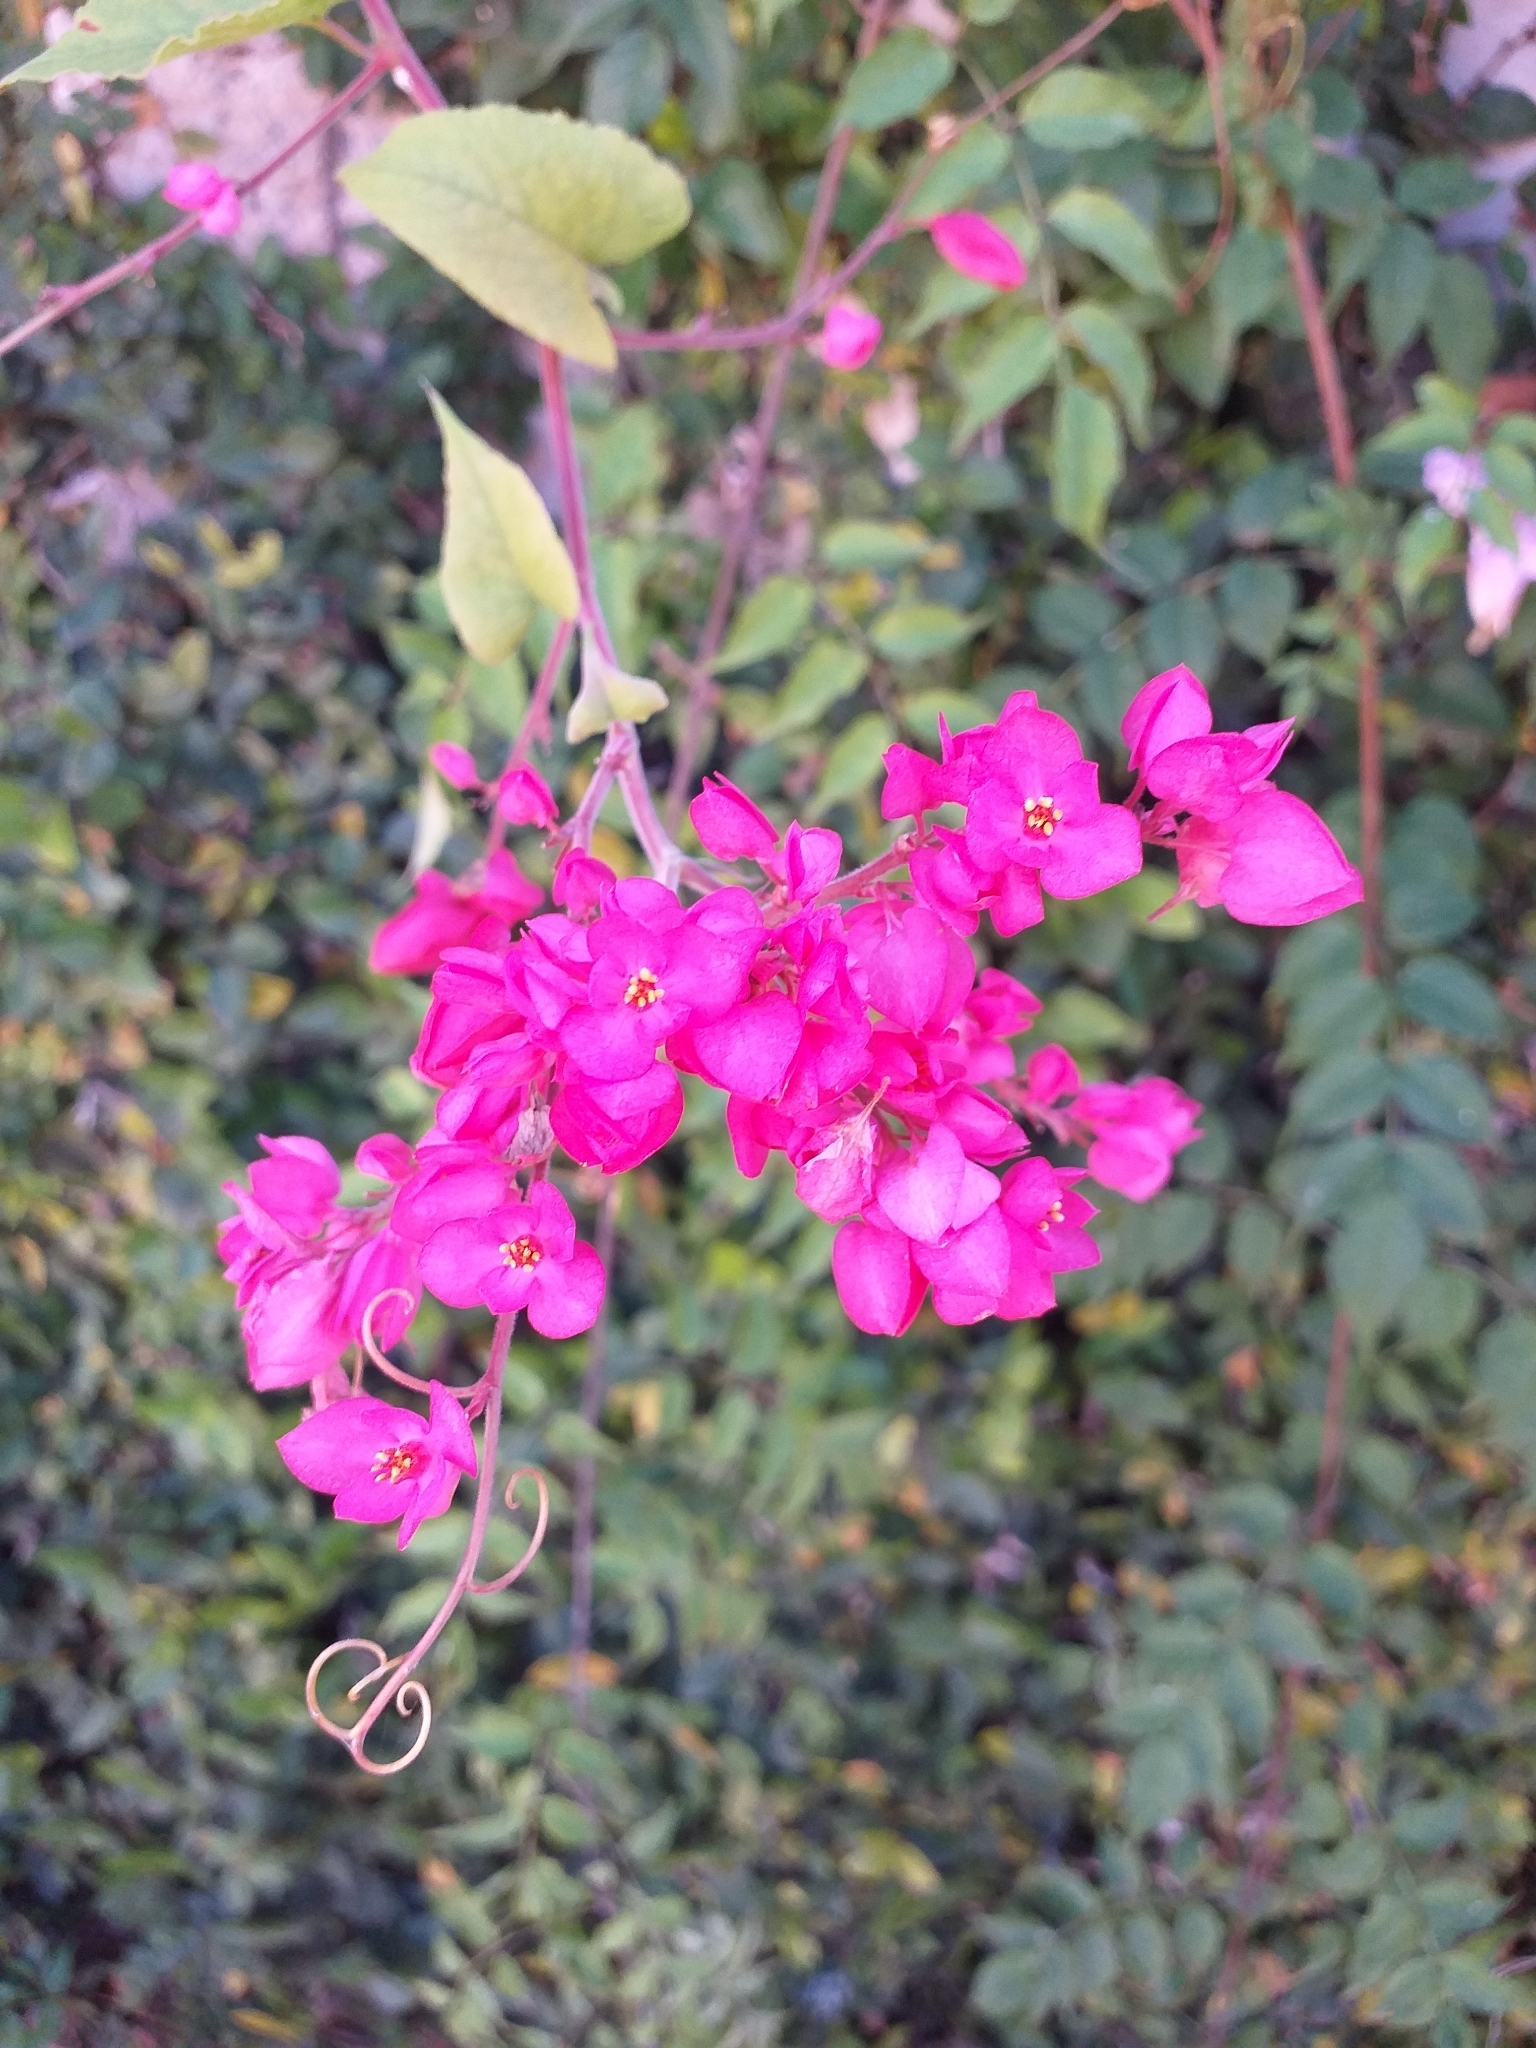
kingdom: Plantae
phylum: Tracheophyta
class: Magnoliopsida
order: Caryophyllales
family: Polygonaceae
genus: Antigonon
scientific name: Antigonon leptopus
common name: Coral vine
